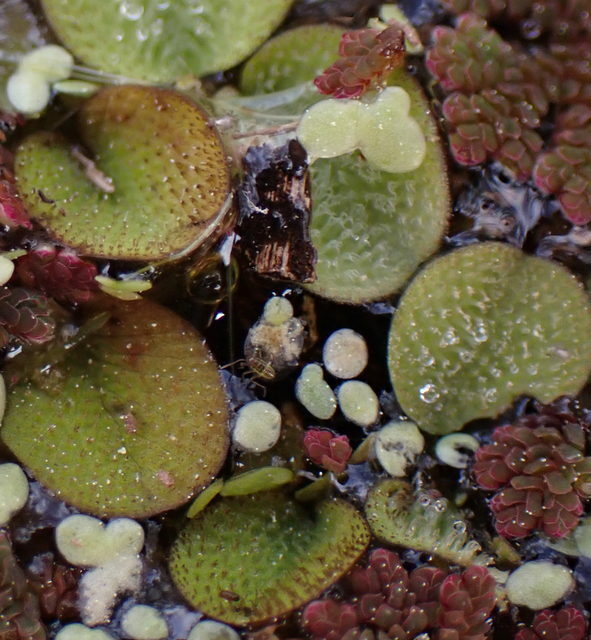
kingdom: Plantae
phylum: Tracheophyta
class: Polypodiopsida
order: Salviniales
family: Salviniaceae
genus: Salvinia
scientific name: Salvinia minima
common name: Water spangles
